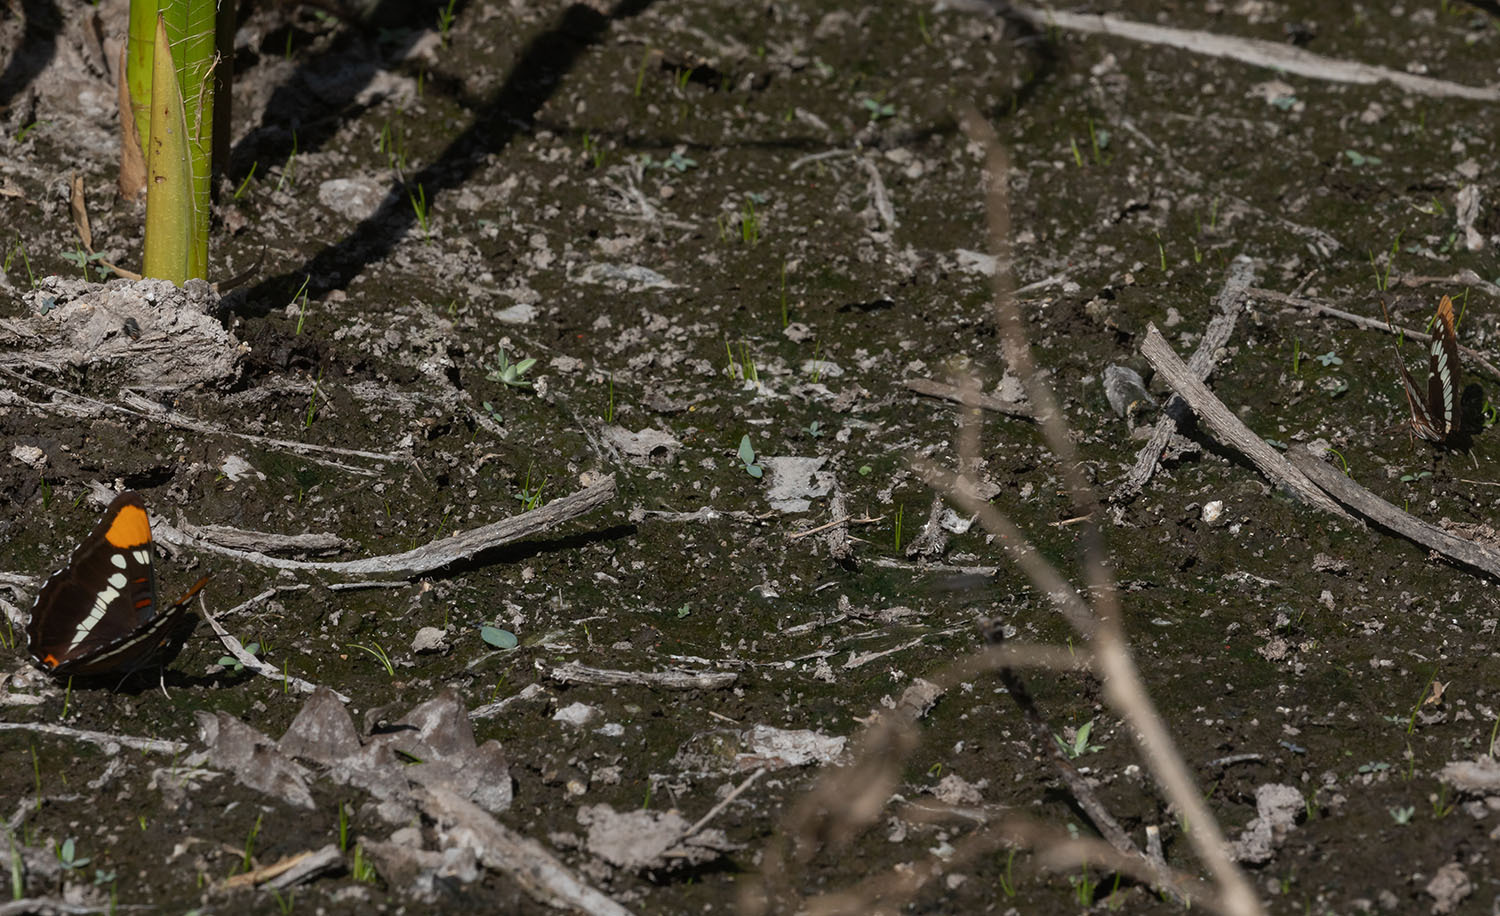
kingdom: Animalia
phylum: Arthropoda
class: Insecta
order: Lepidoptera
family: Nymphalidae
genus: Limenitis
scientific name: Limenitis bredowii
